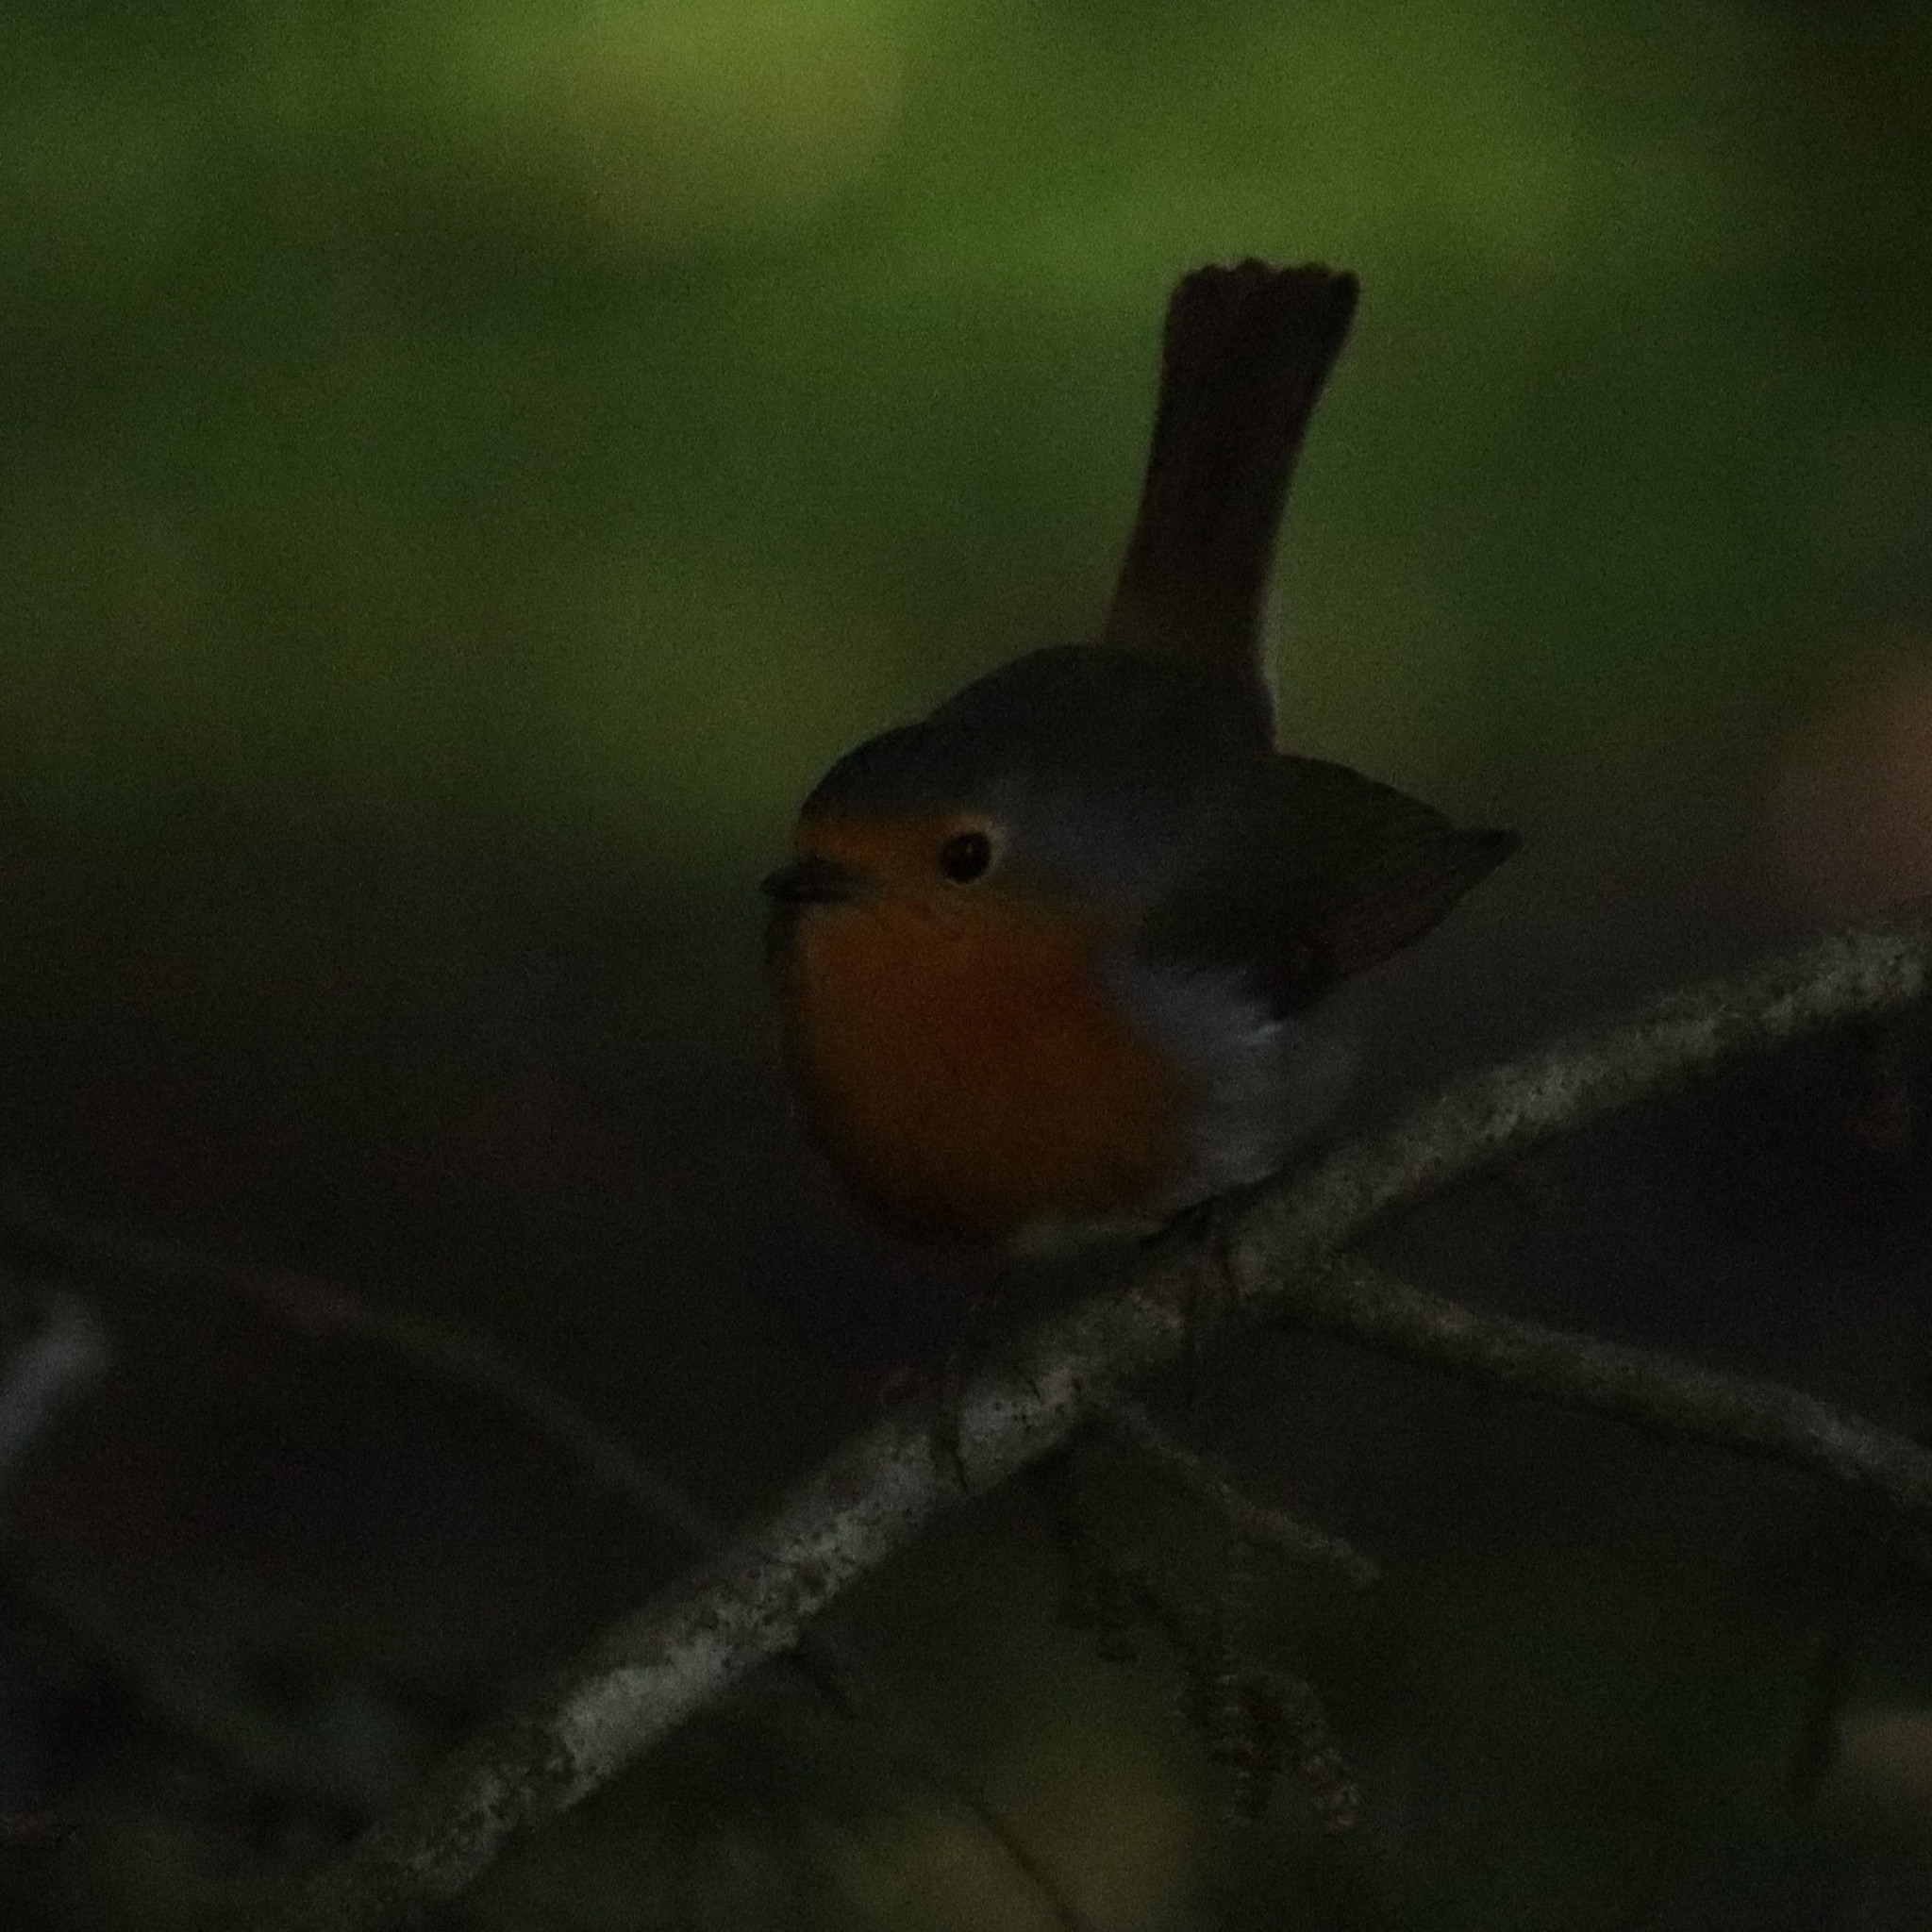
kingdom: Animalia
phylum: Chordata
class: Aves
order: Passeriformes
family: Muscicapidae
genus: Erithacus
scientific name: Erithacus rubecula
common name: European robin
